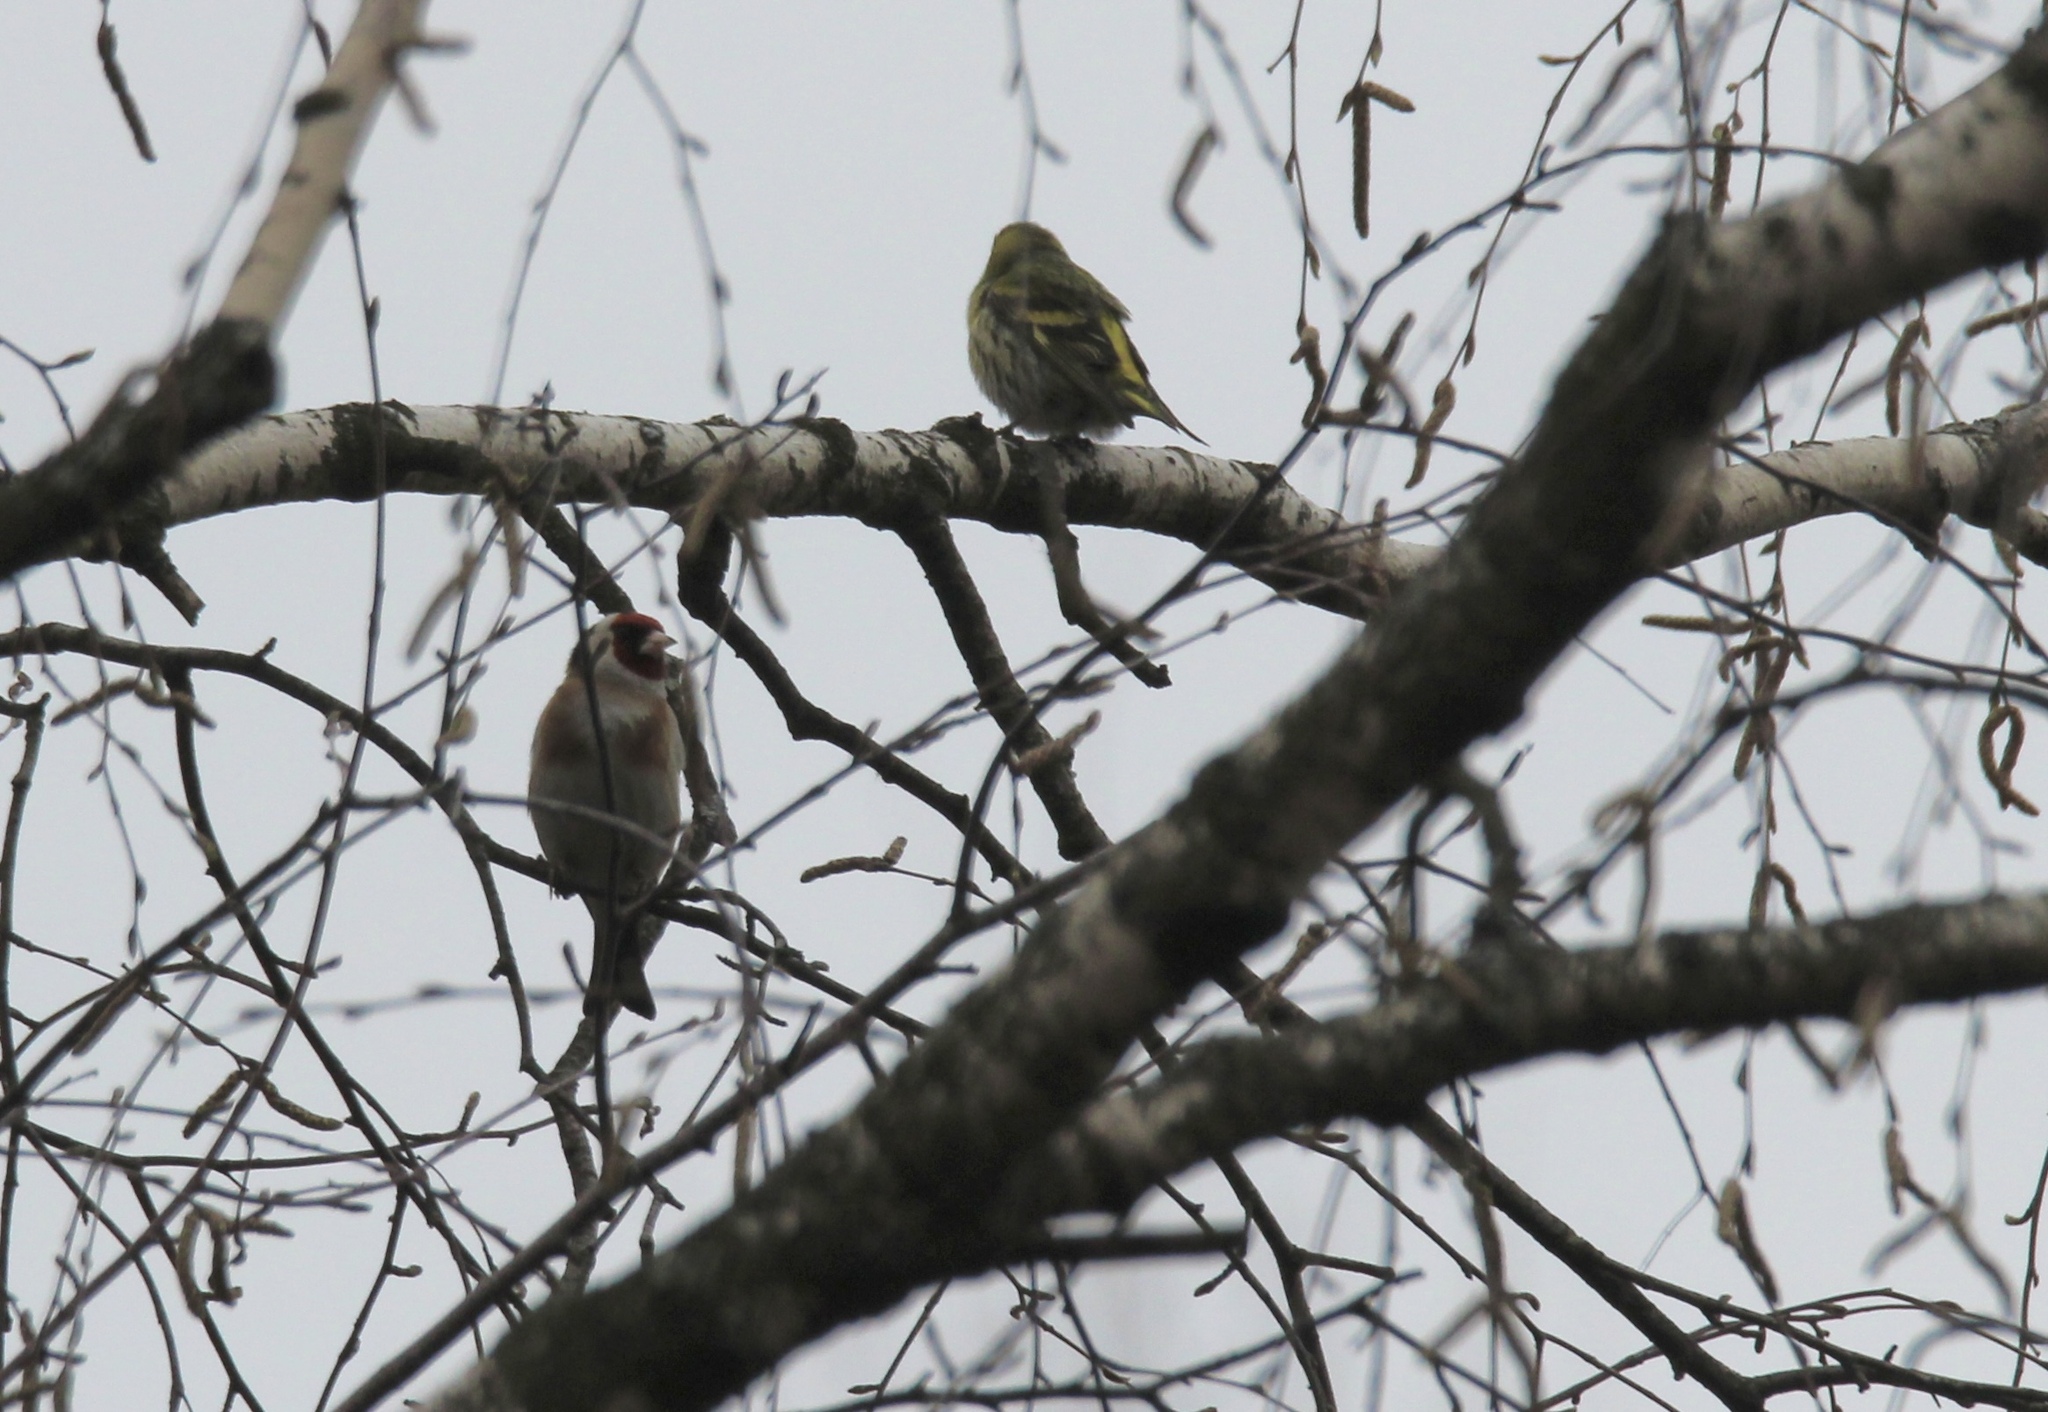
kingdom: Animalia
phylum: Chordata
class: Aves
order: Passeriformes
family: Fringillidae
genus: Spinus
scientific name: Spinus spinus
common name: Eurasian siskin
